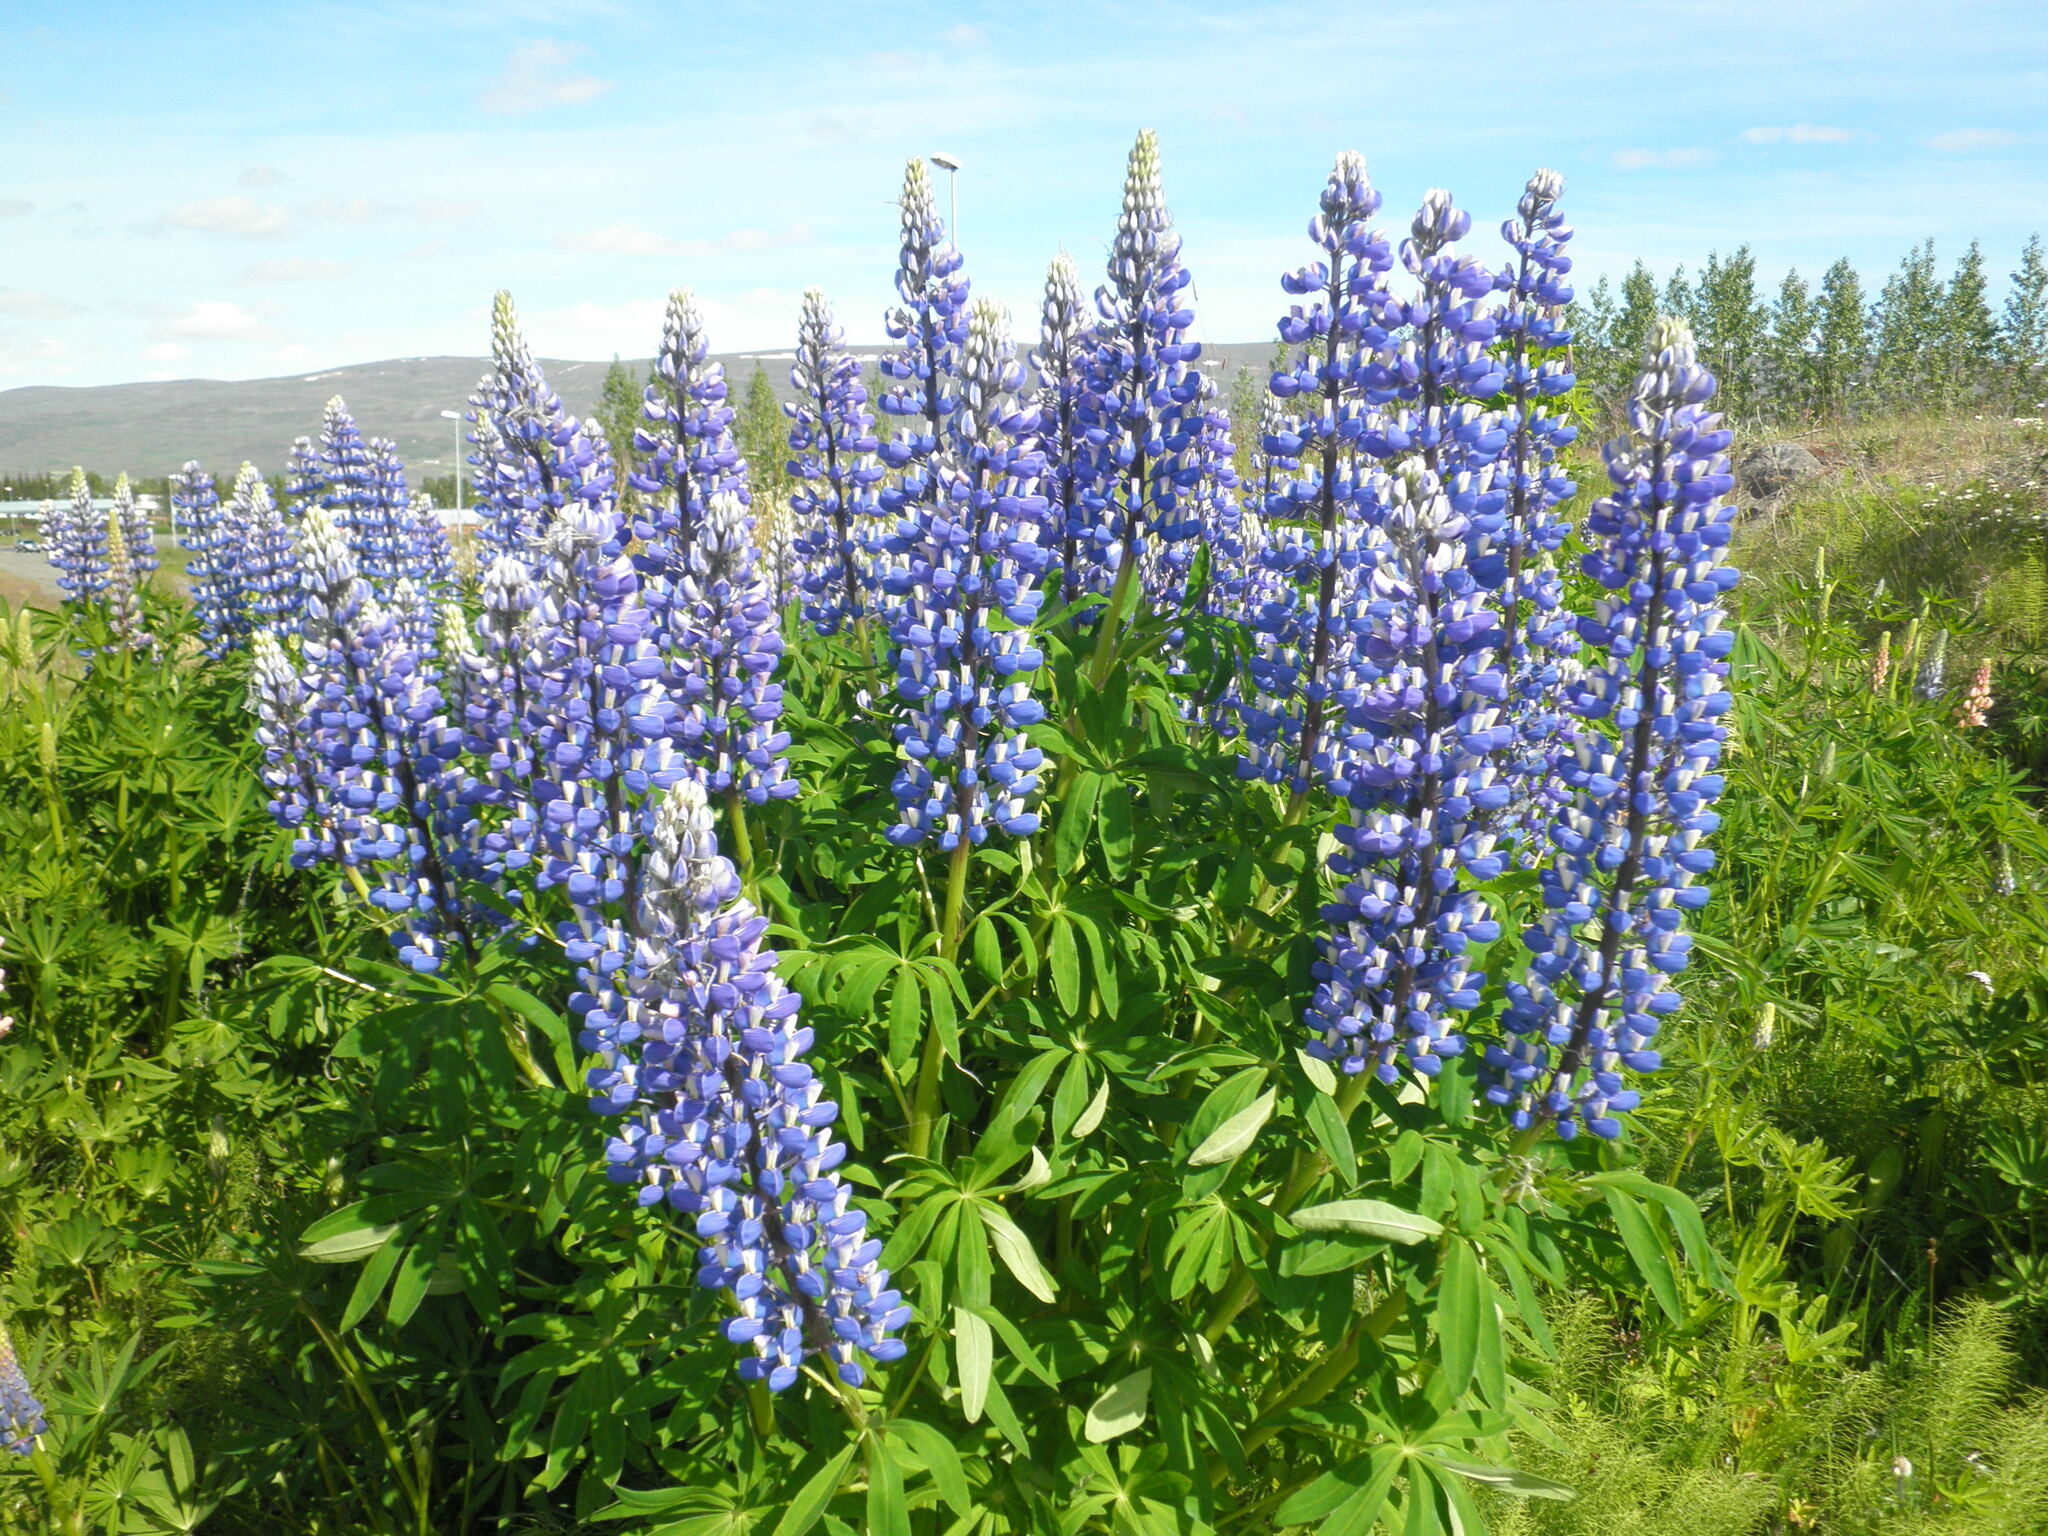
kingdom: Plantae
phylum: Tracheophyta
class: Magnoliopsida
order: Fabales
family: Fabaceae
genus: Lupinus
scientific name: Lupinus nootkatensis
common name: Nootka lupine
